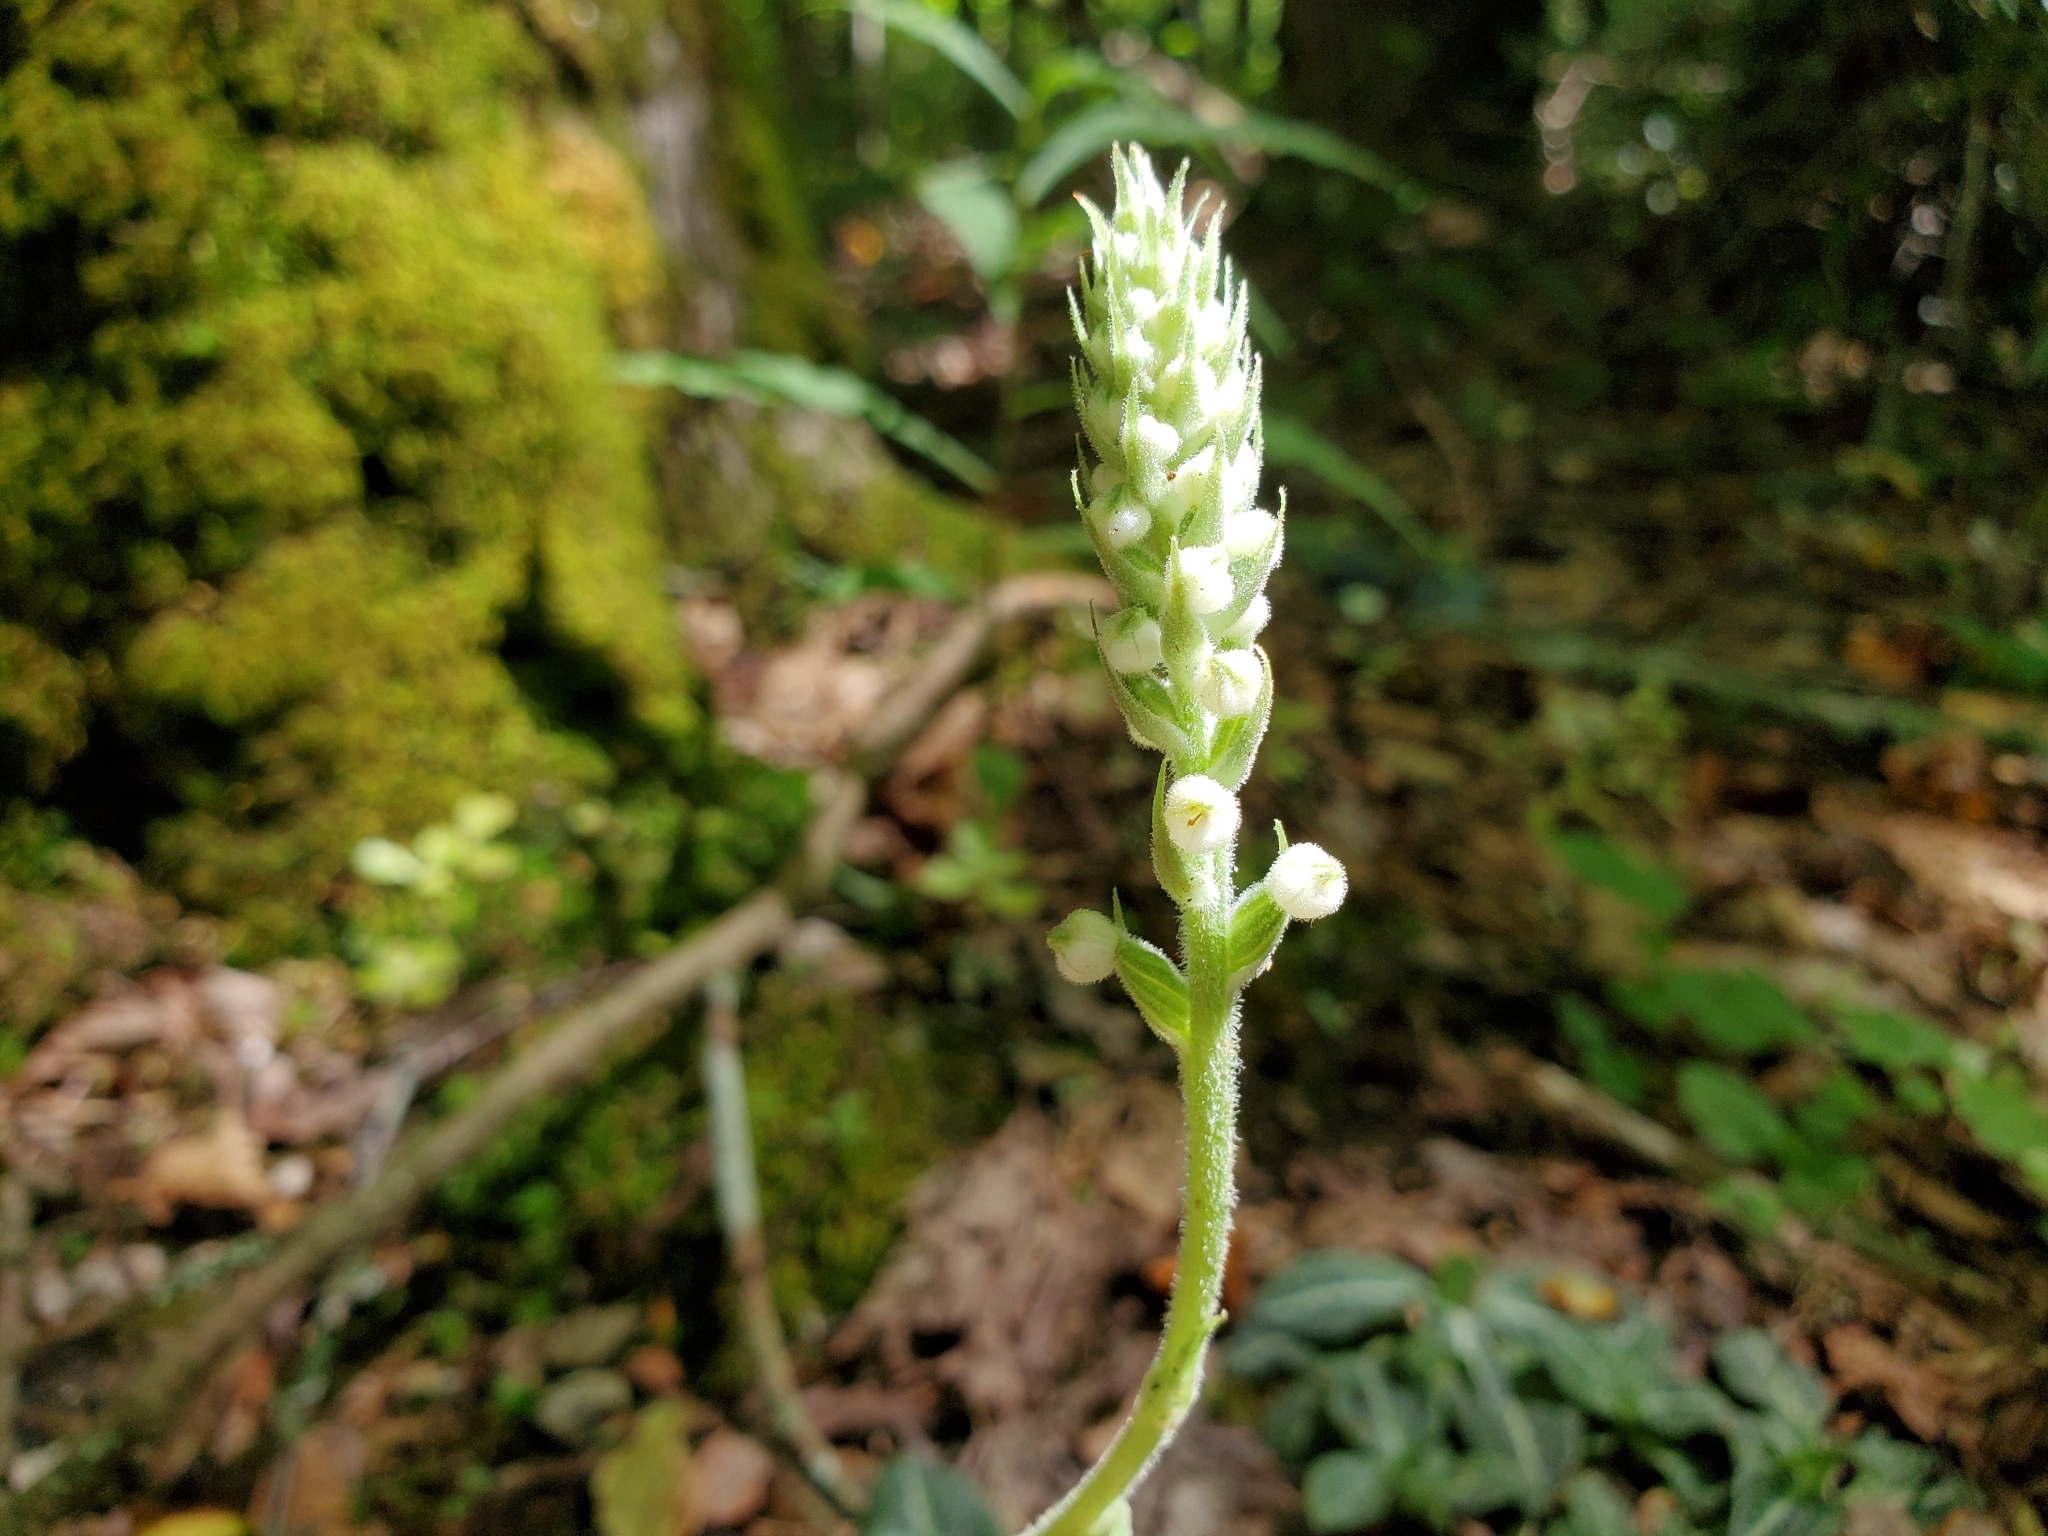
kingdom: Plantae
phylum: Tracheophyta
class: Liliopsida
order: Asparagales
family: Orchidaceae
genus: Goodyera
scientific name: Goodyera pubescens
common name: Downy rattlesnake-plantain
